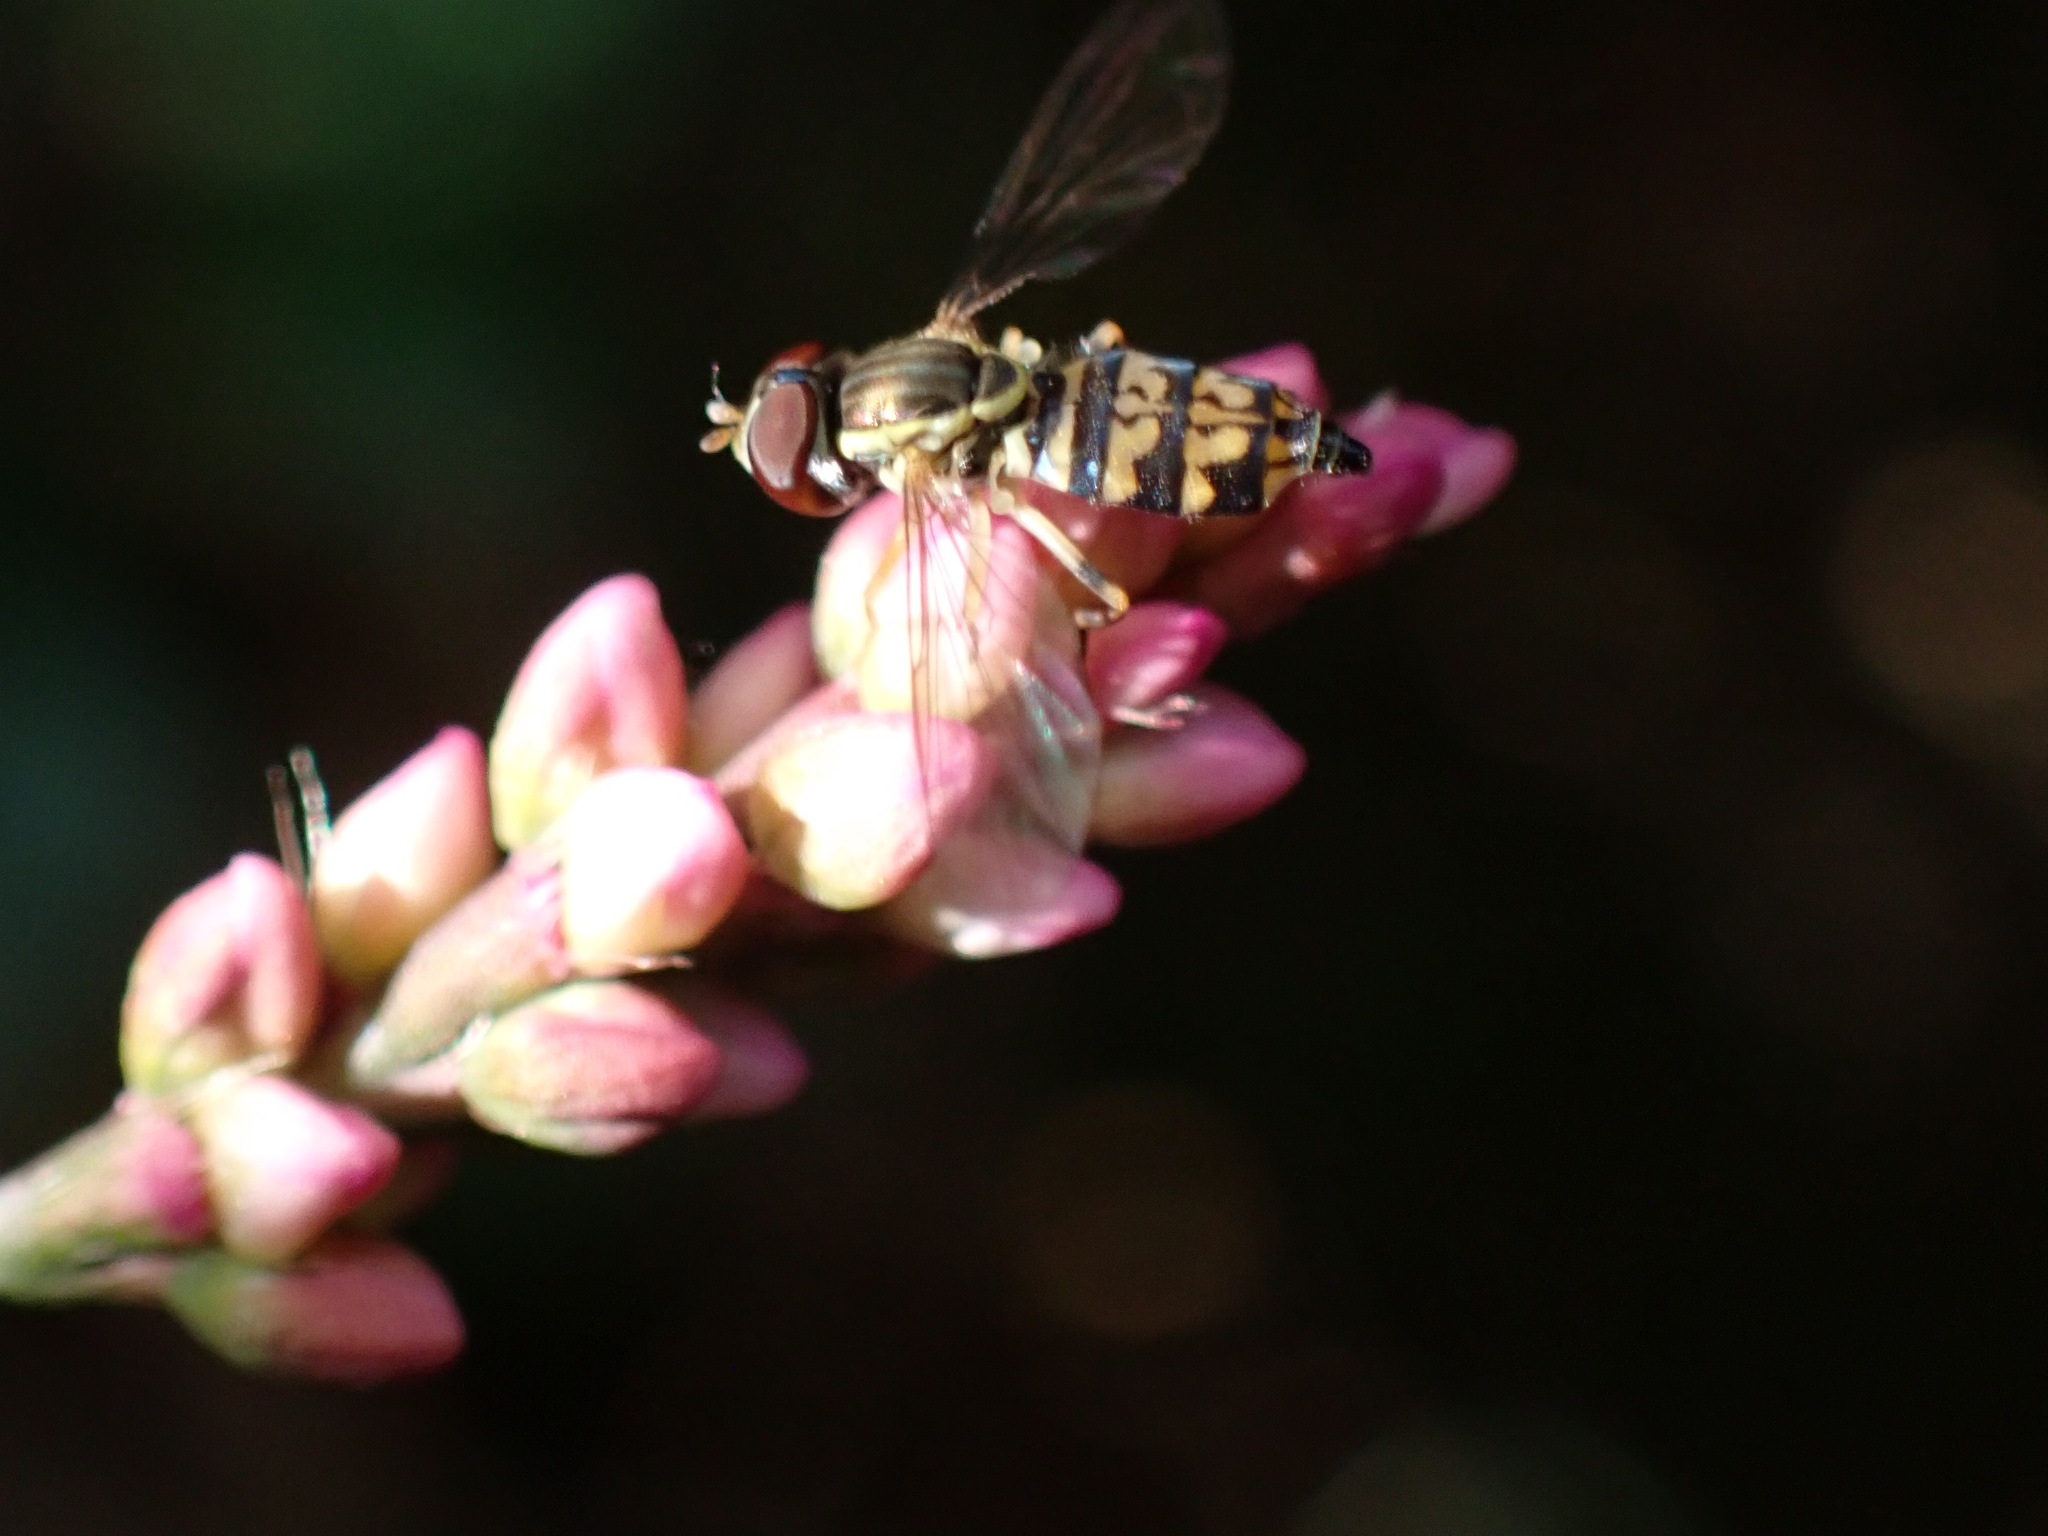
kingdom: Animalia
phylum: Arthropoda
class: Insecta
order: Diptera
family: Syrphidae
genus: Toxomerus
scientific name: Toxomerus geminatus
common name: Eastern calligrapher
